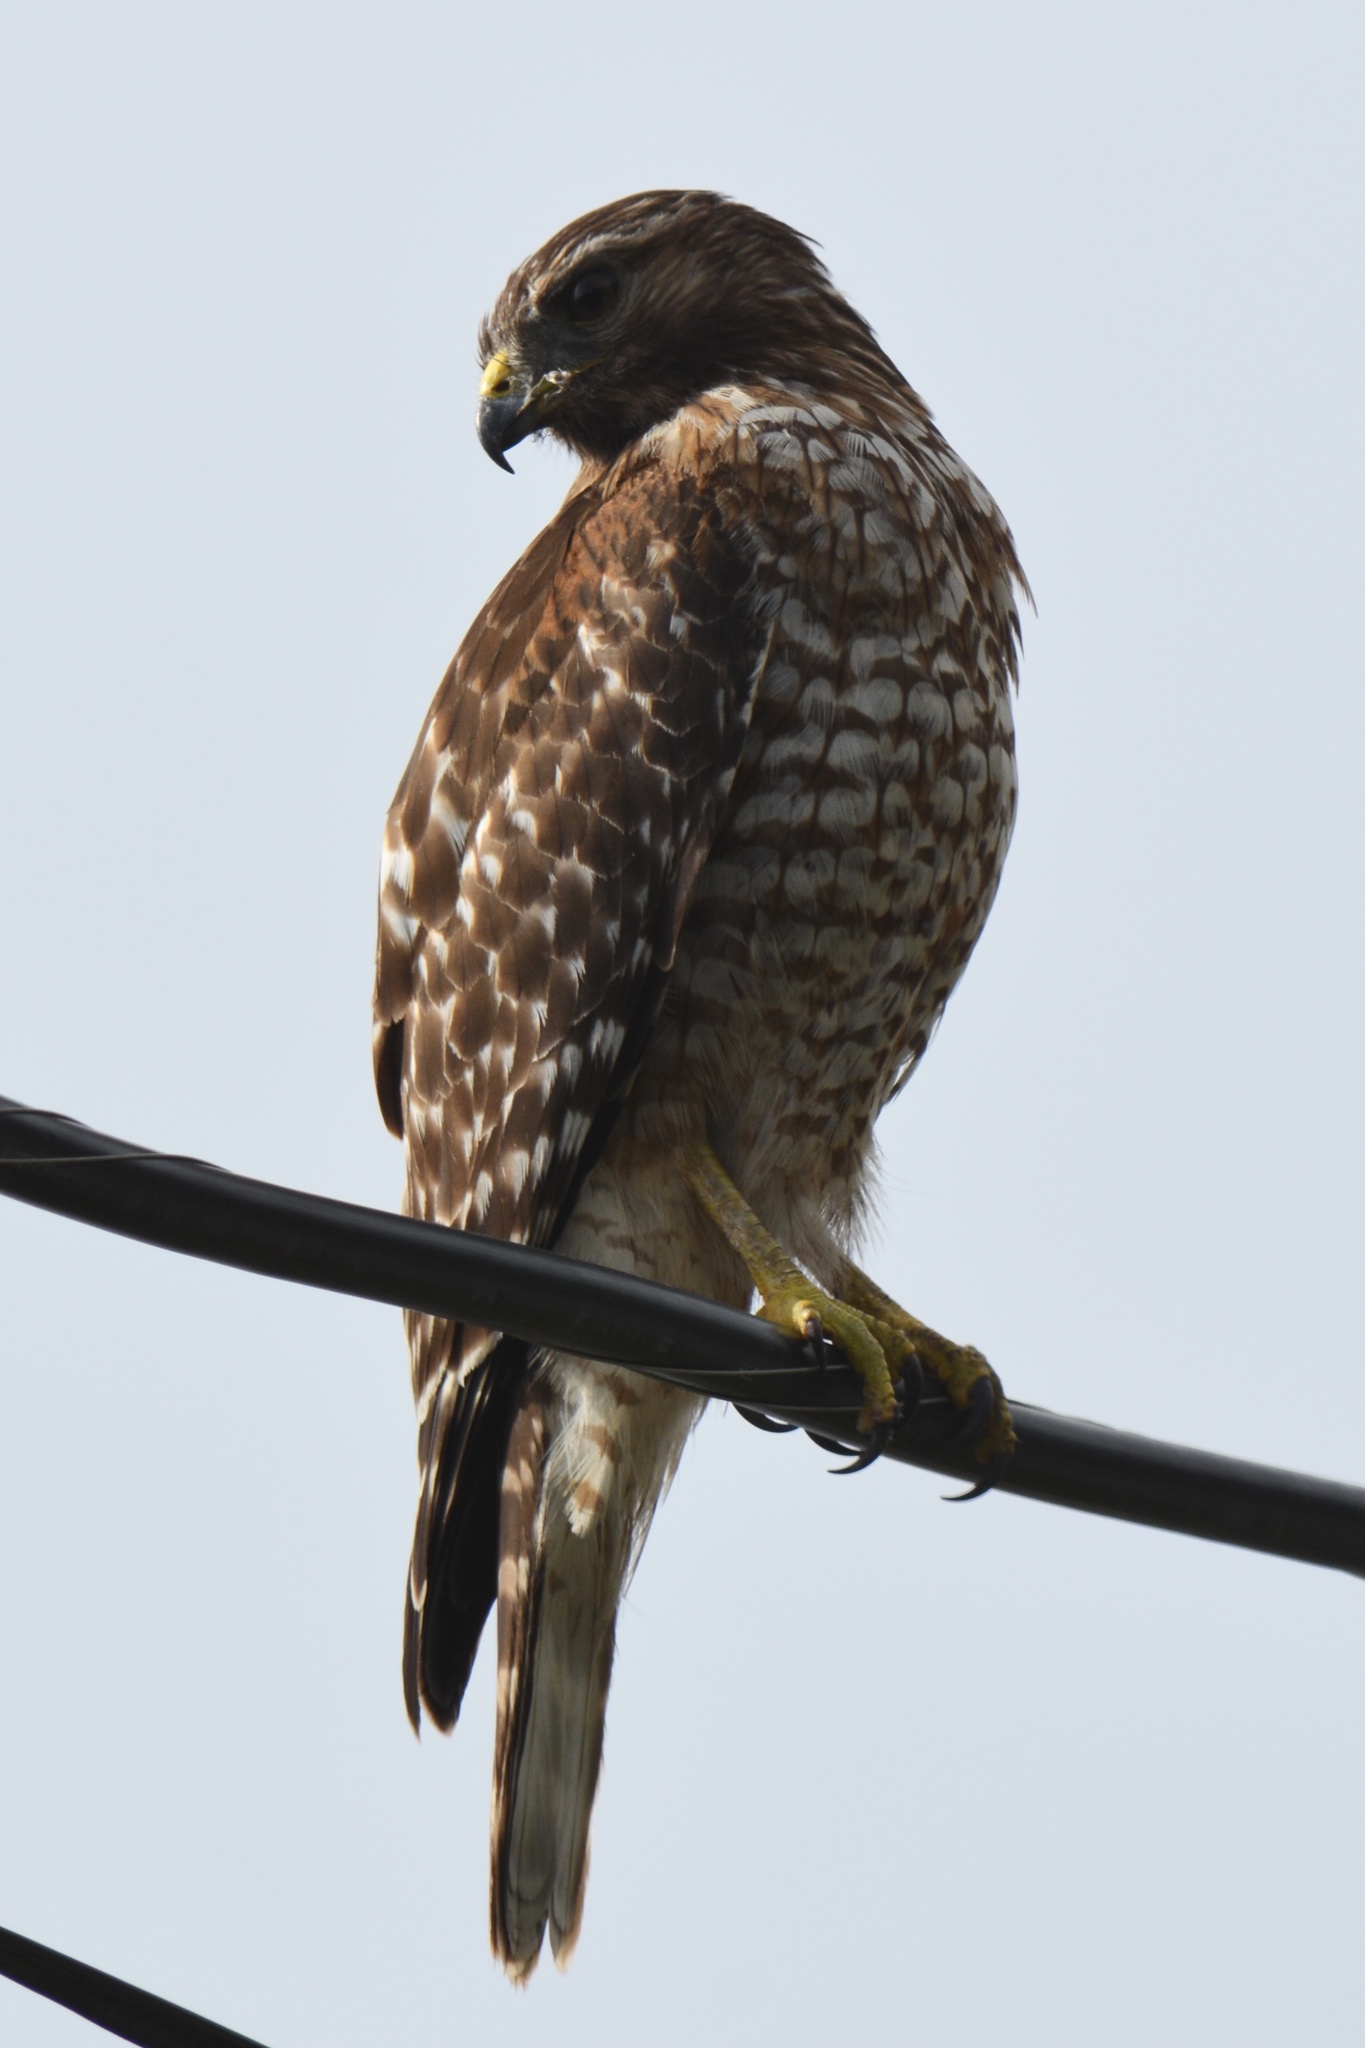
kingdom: Animalia
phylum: Chordata
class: Aves
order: Accipitriformes
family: Accipitridae
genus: Buteo
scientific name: Buteo lineatus
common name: Red-shouldered hawk
